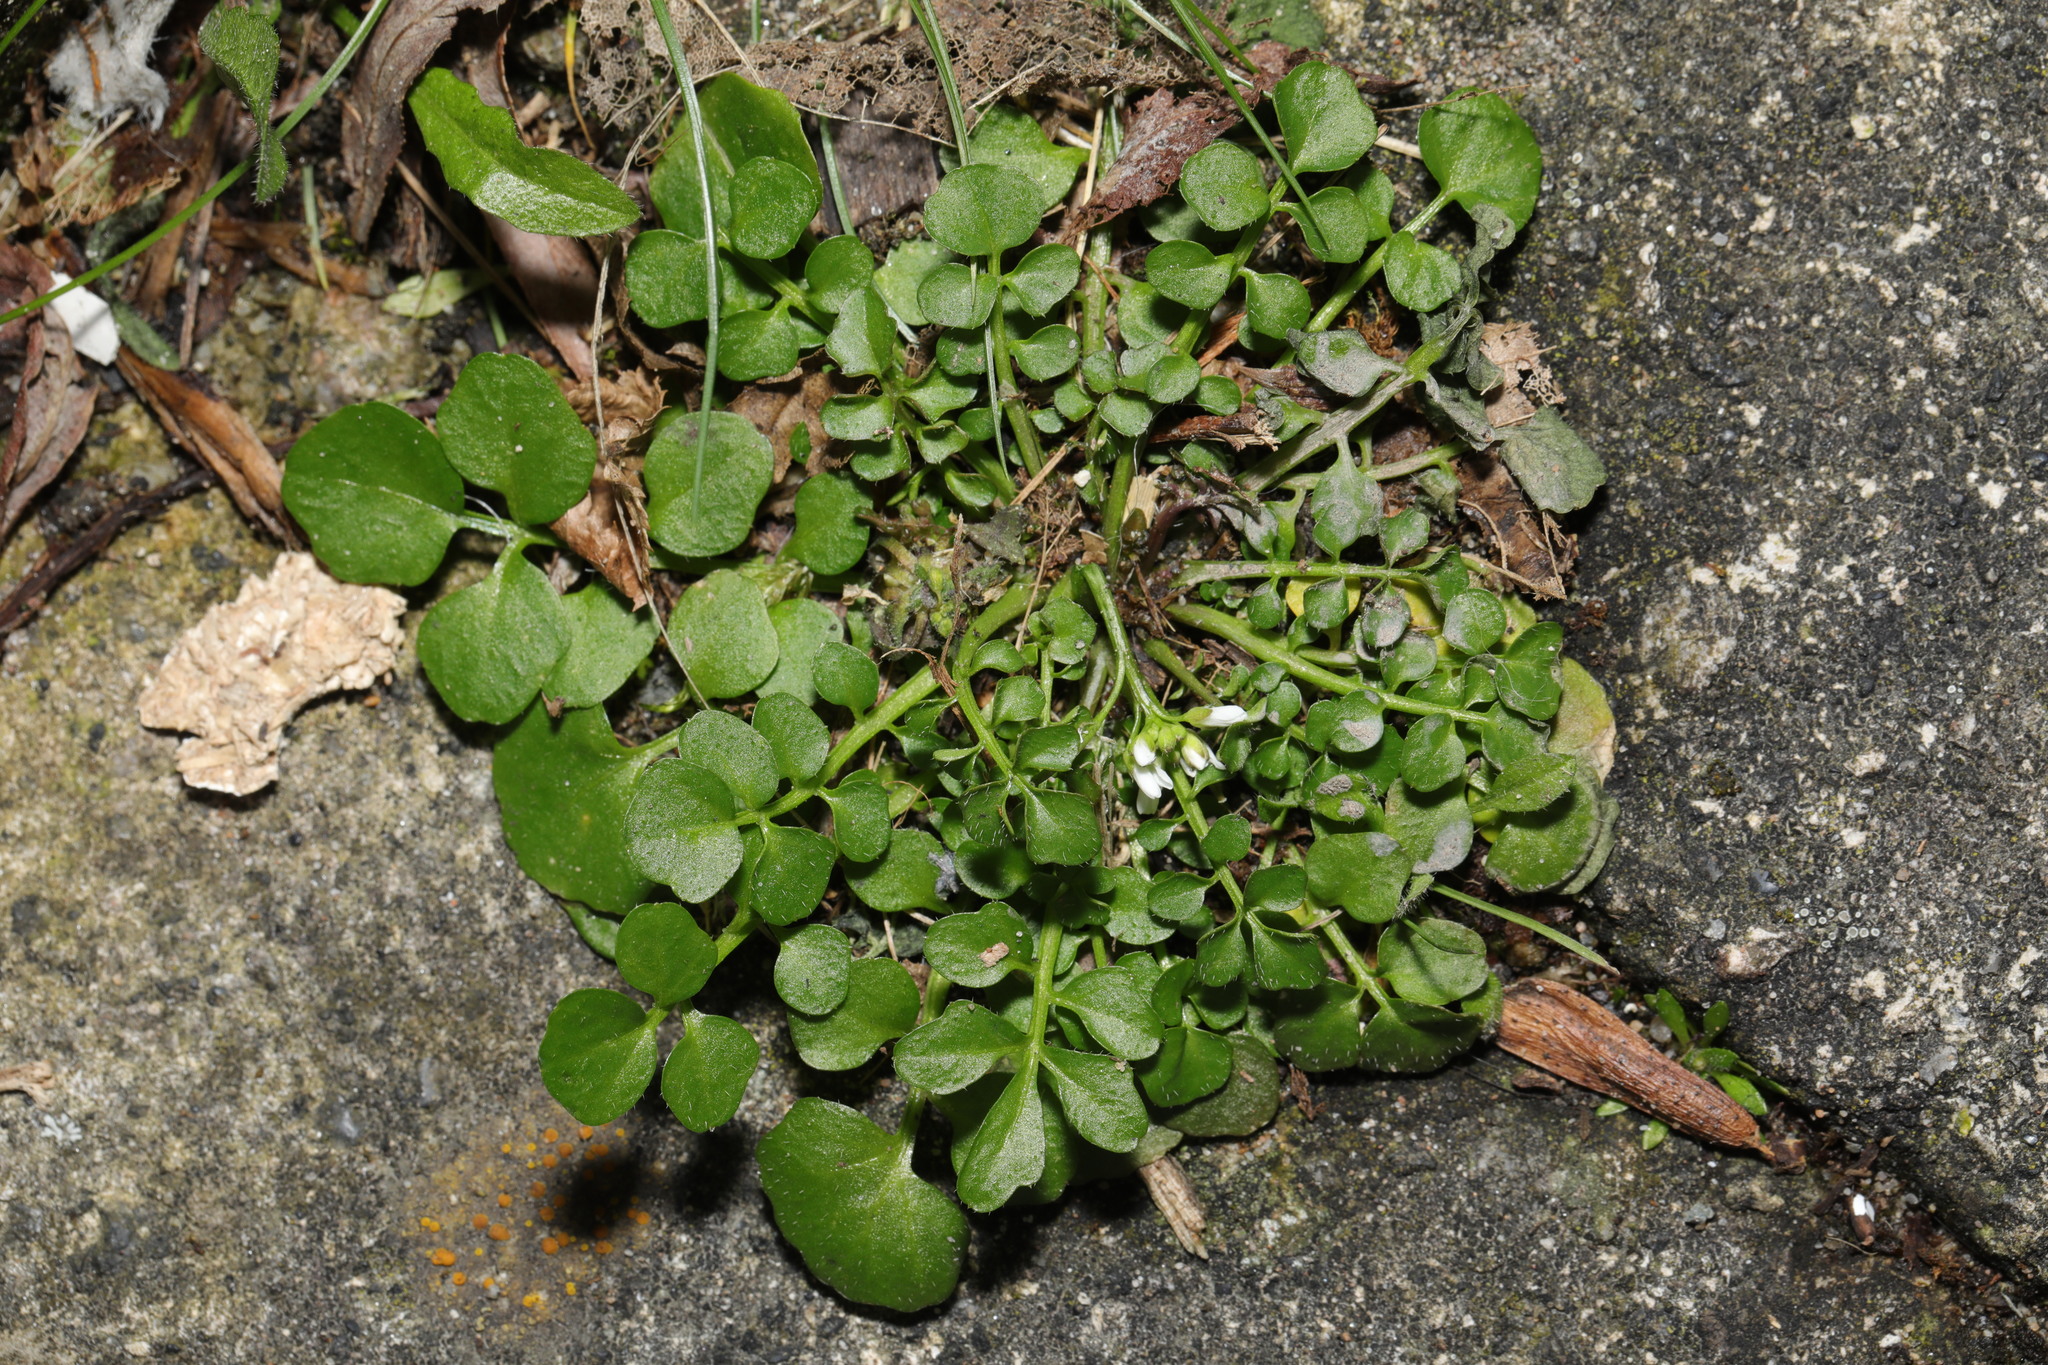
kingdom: Plantae
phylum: Tracheophyta
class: Magnoliopsida
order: Brassicales
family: Brassicaceae
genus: Cardamine
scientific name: Cardamine hirsuta
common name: Hairy bittercress
